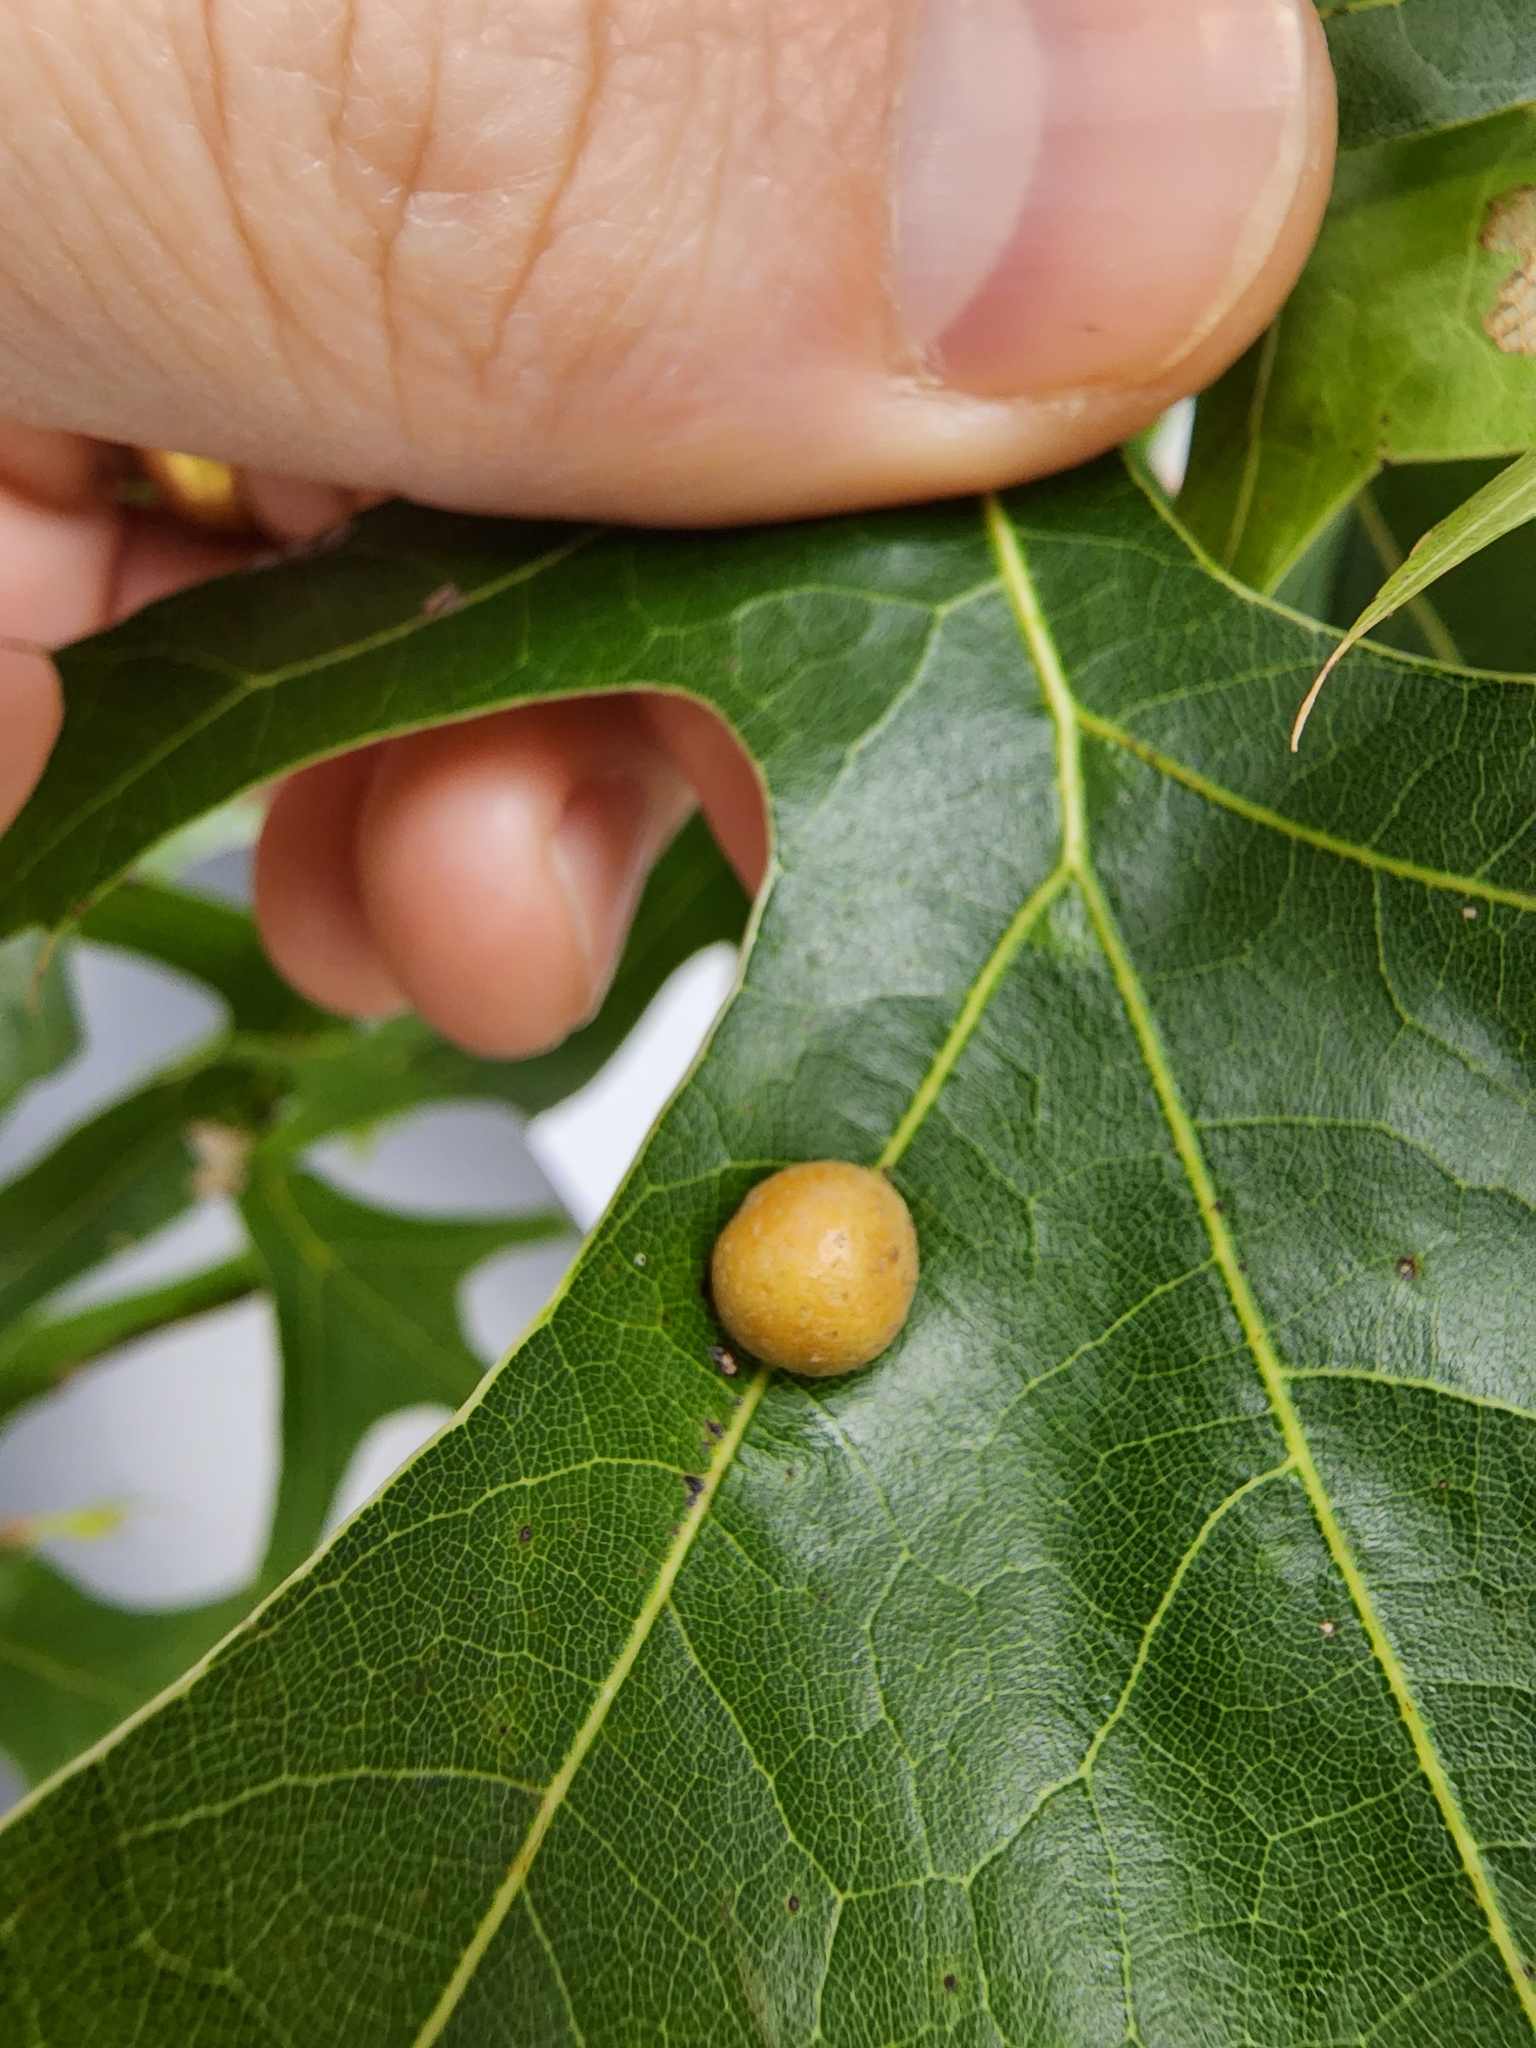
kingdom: Animalia
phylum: Arthropoda
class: Insecta
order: Diptera
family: Cecidomyiidae
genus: Polystepha
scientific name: Polystepha pilulae
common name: Oak leaf gall midge
